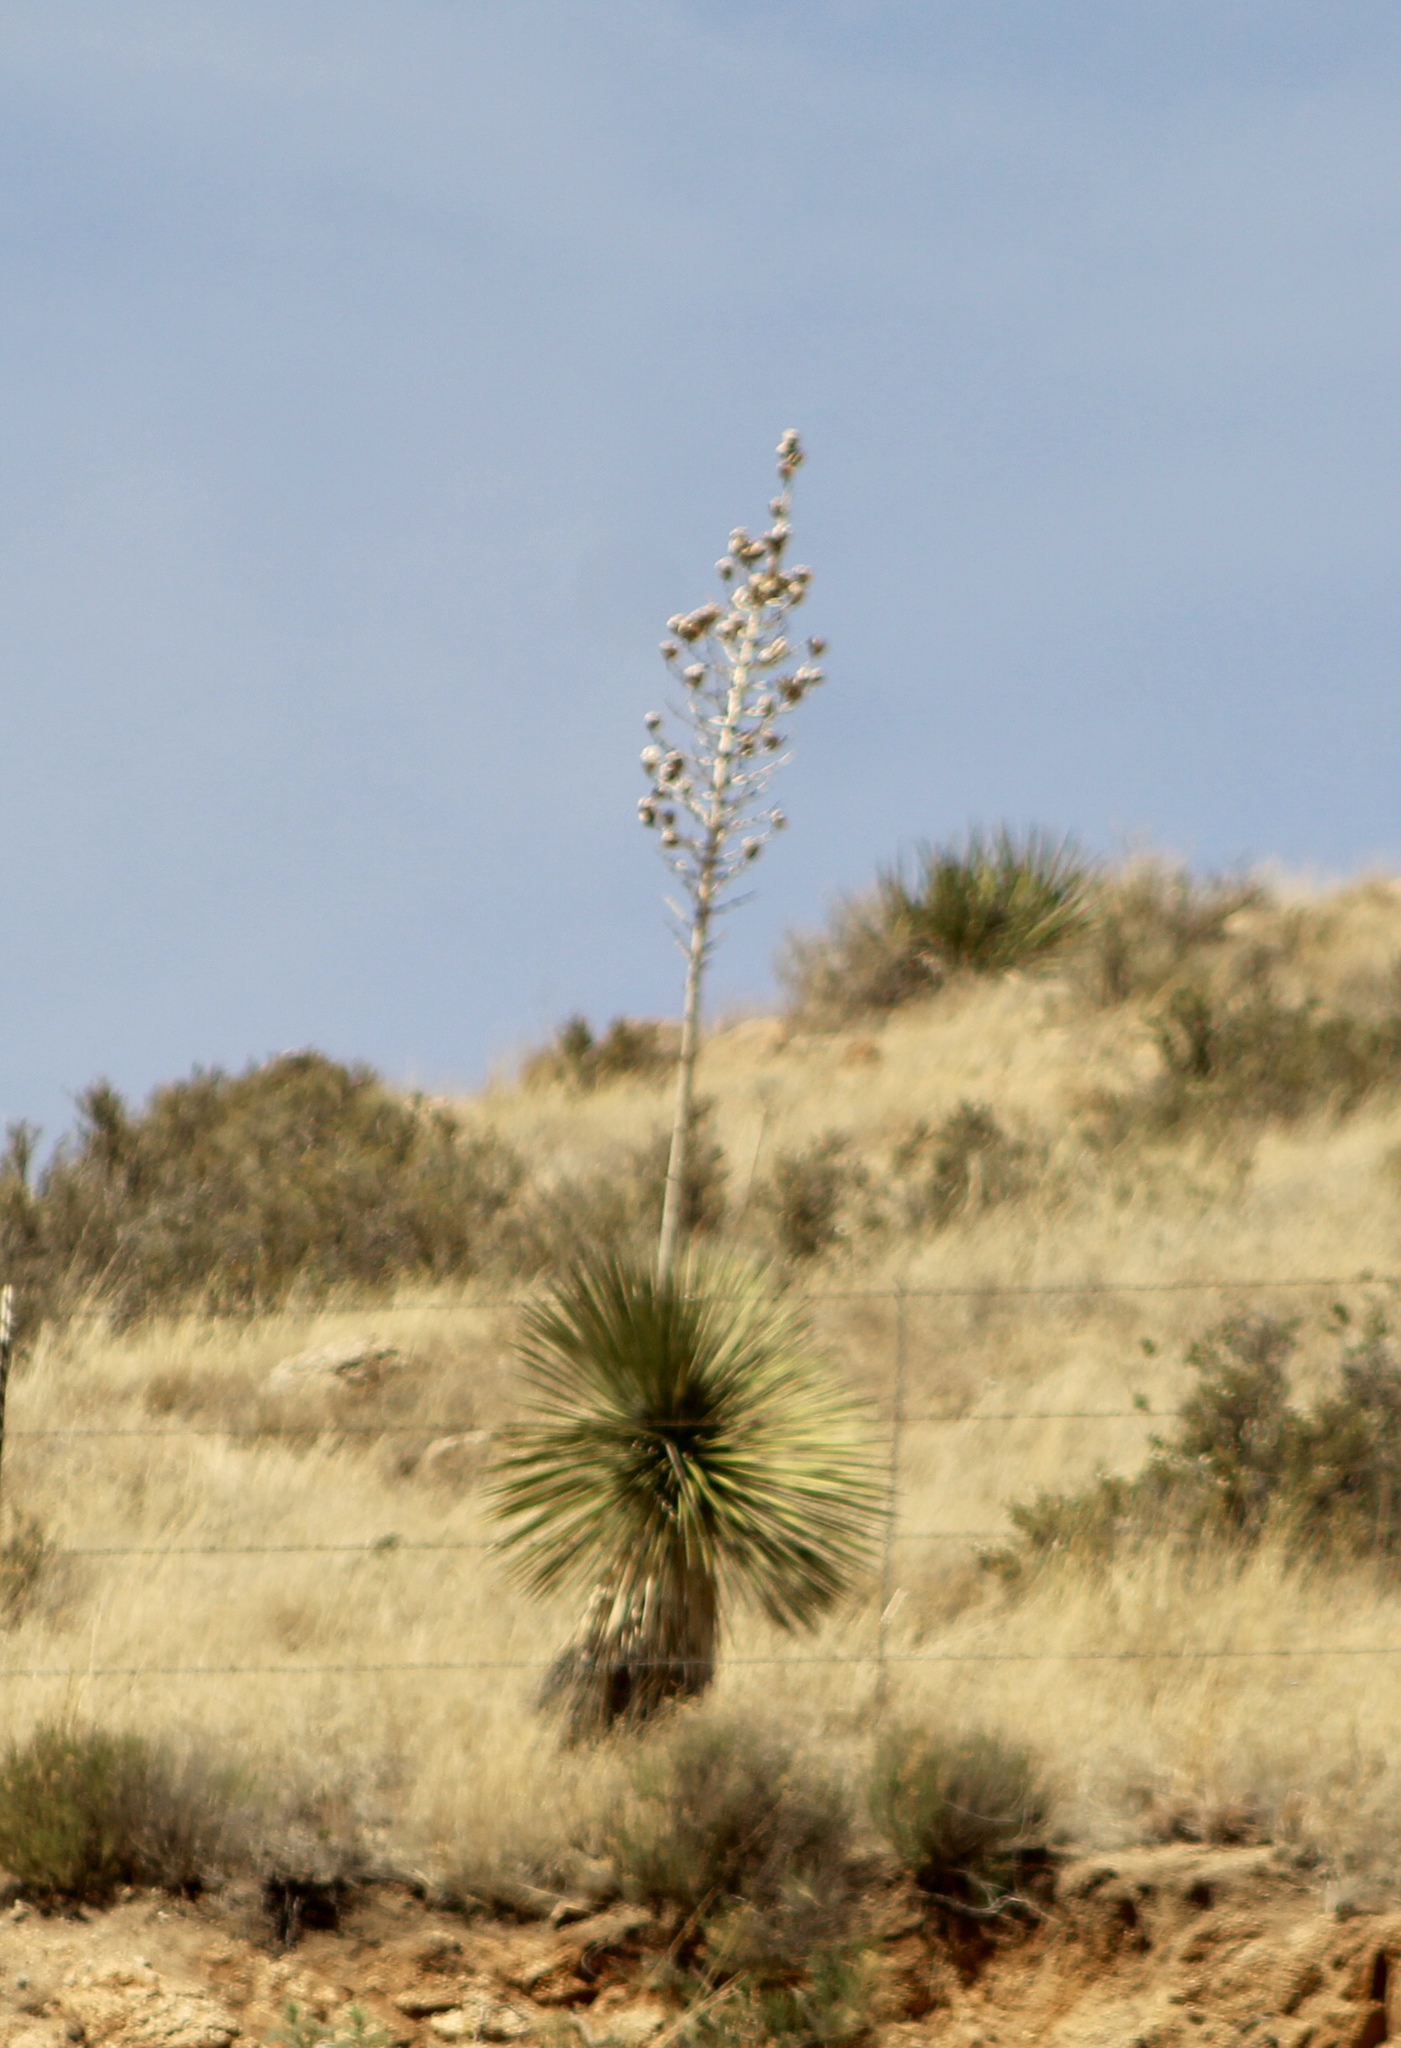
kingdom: Plantae
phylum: Tracheophyta
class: Liliopsida
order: Asparagales
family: Asparagaceae
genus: Yucca
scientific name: Yucca elata
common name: Palmella
